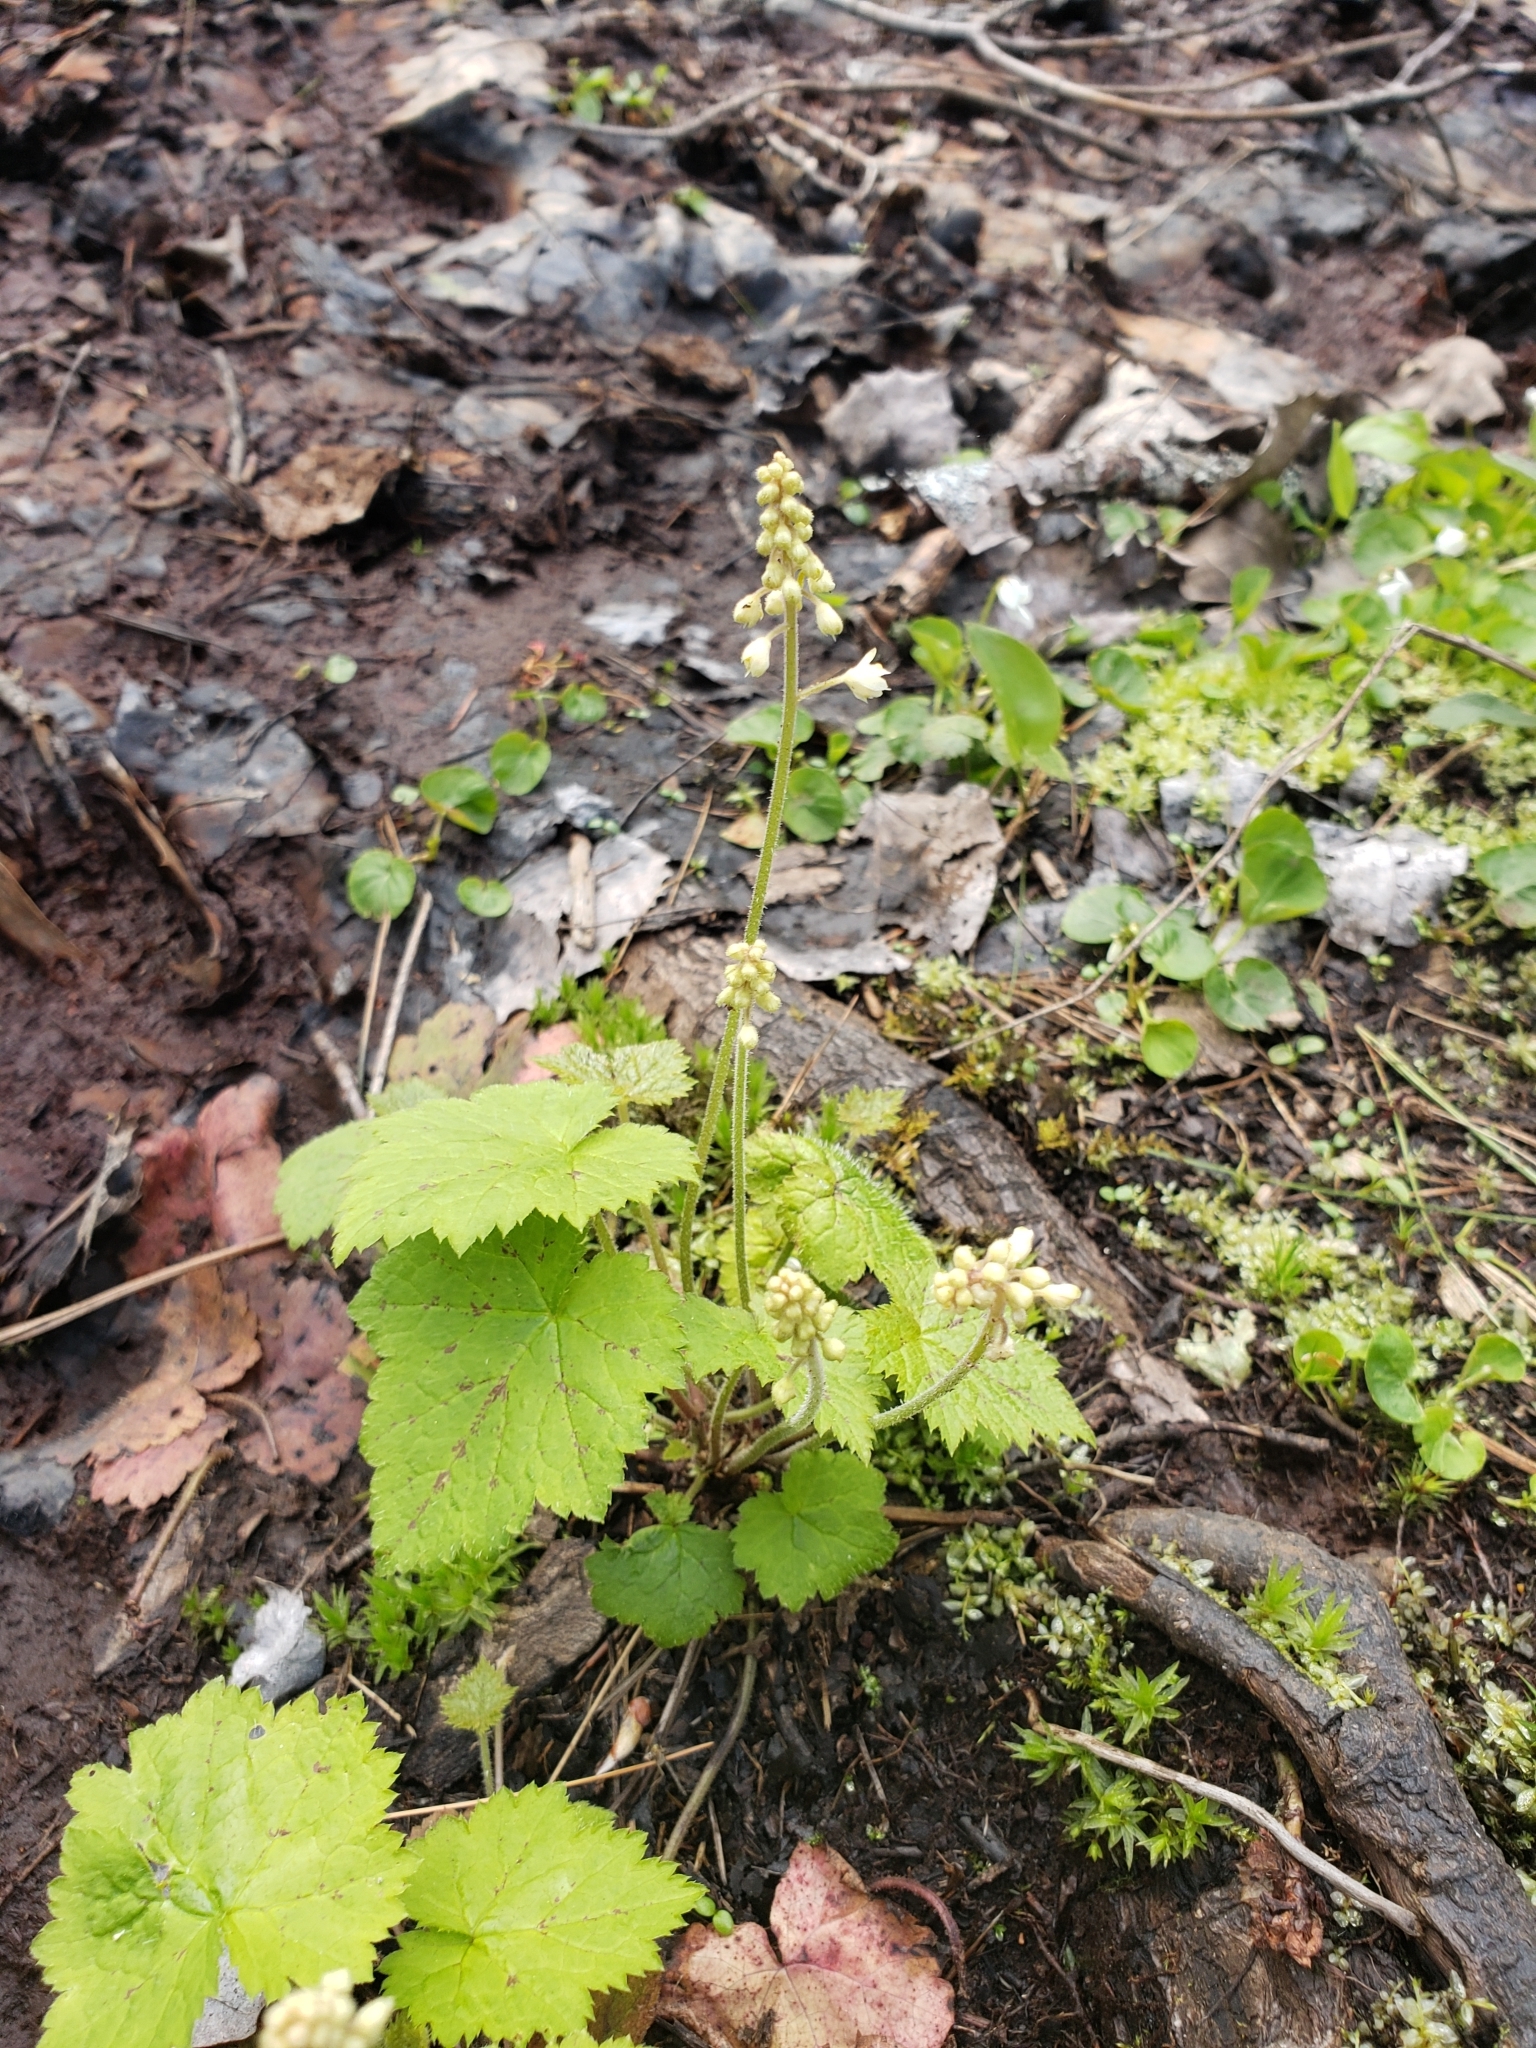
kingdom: Plantae
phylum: Tracheophyta
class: Magnoliopsida
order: Saxifragales
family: Saxifragaceae
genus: Tiarella
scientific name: Tiarella stolonifera
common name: Stoloniferous foamflower
